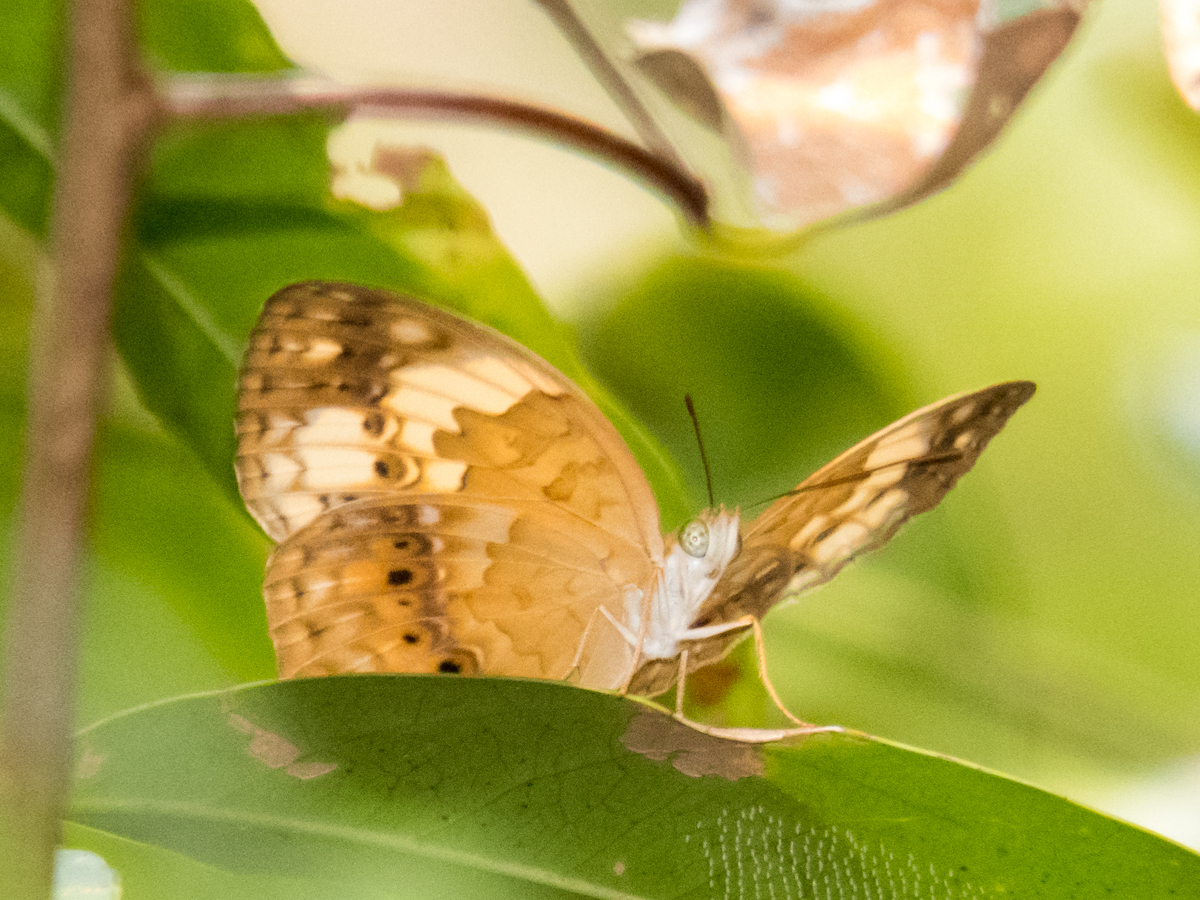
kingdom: Animalia
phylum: Arthropoda
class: Insecta
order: Lepidoptera
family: Nymphalidae
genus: Cupha
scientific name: Cupha erymanthis
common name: Rustic
